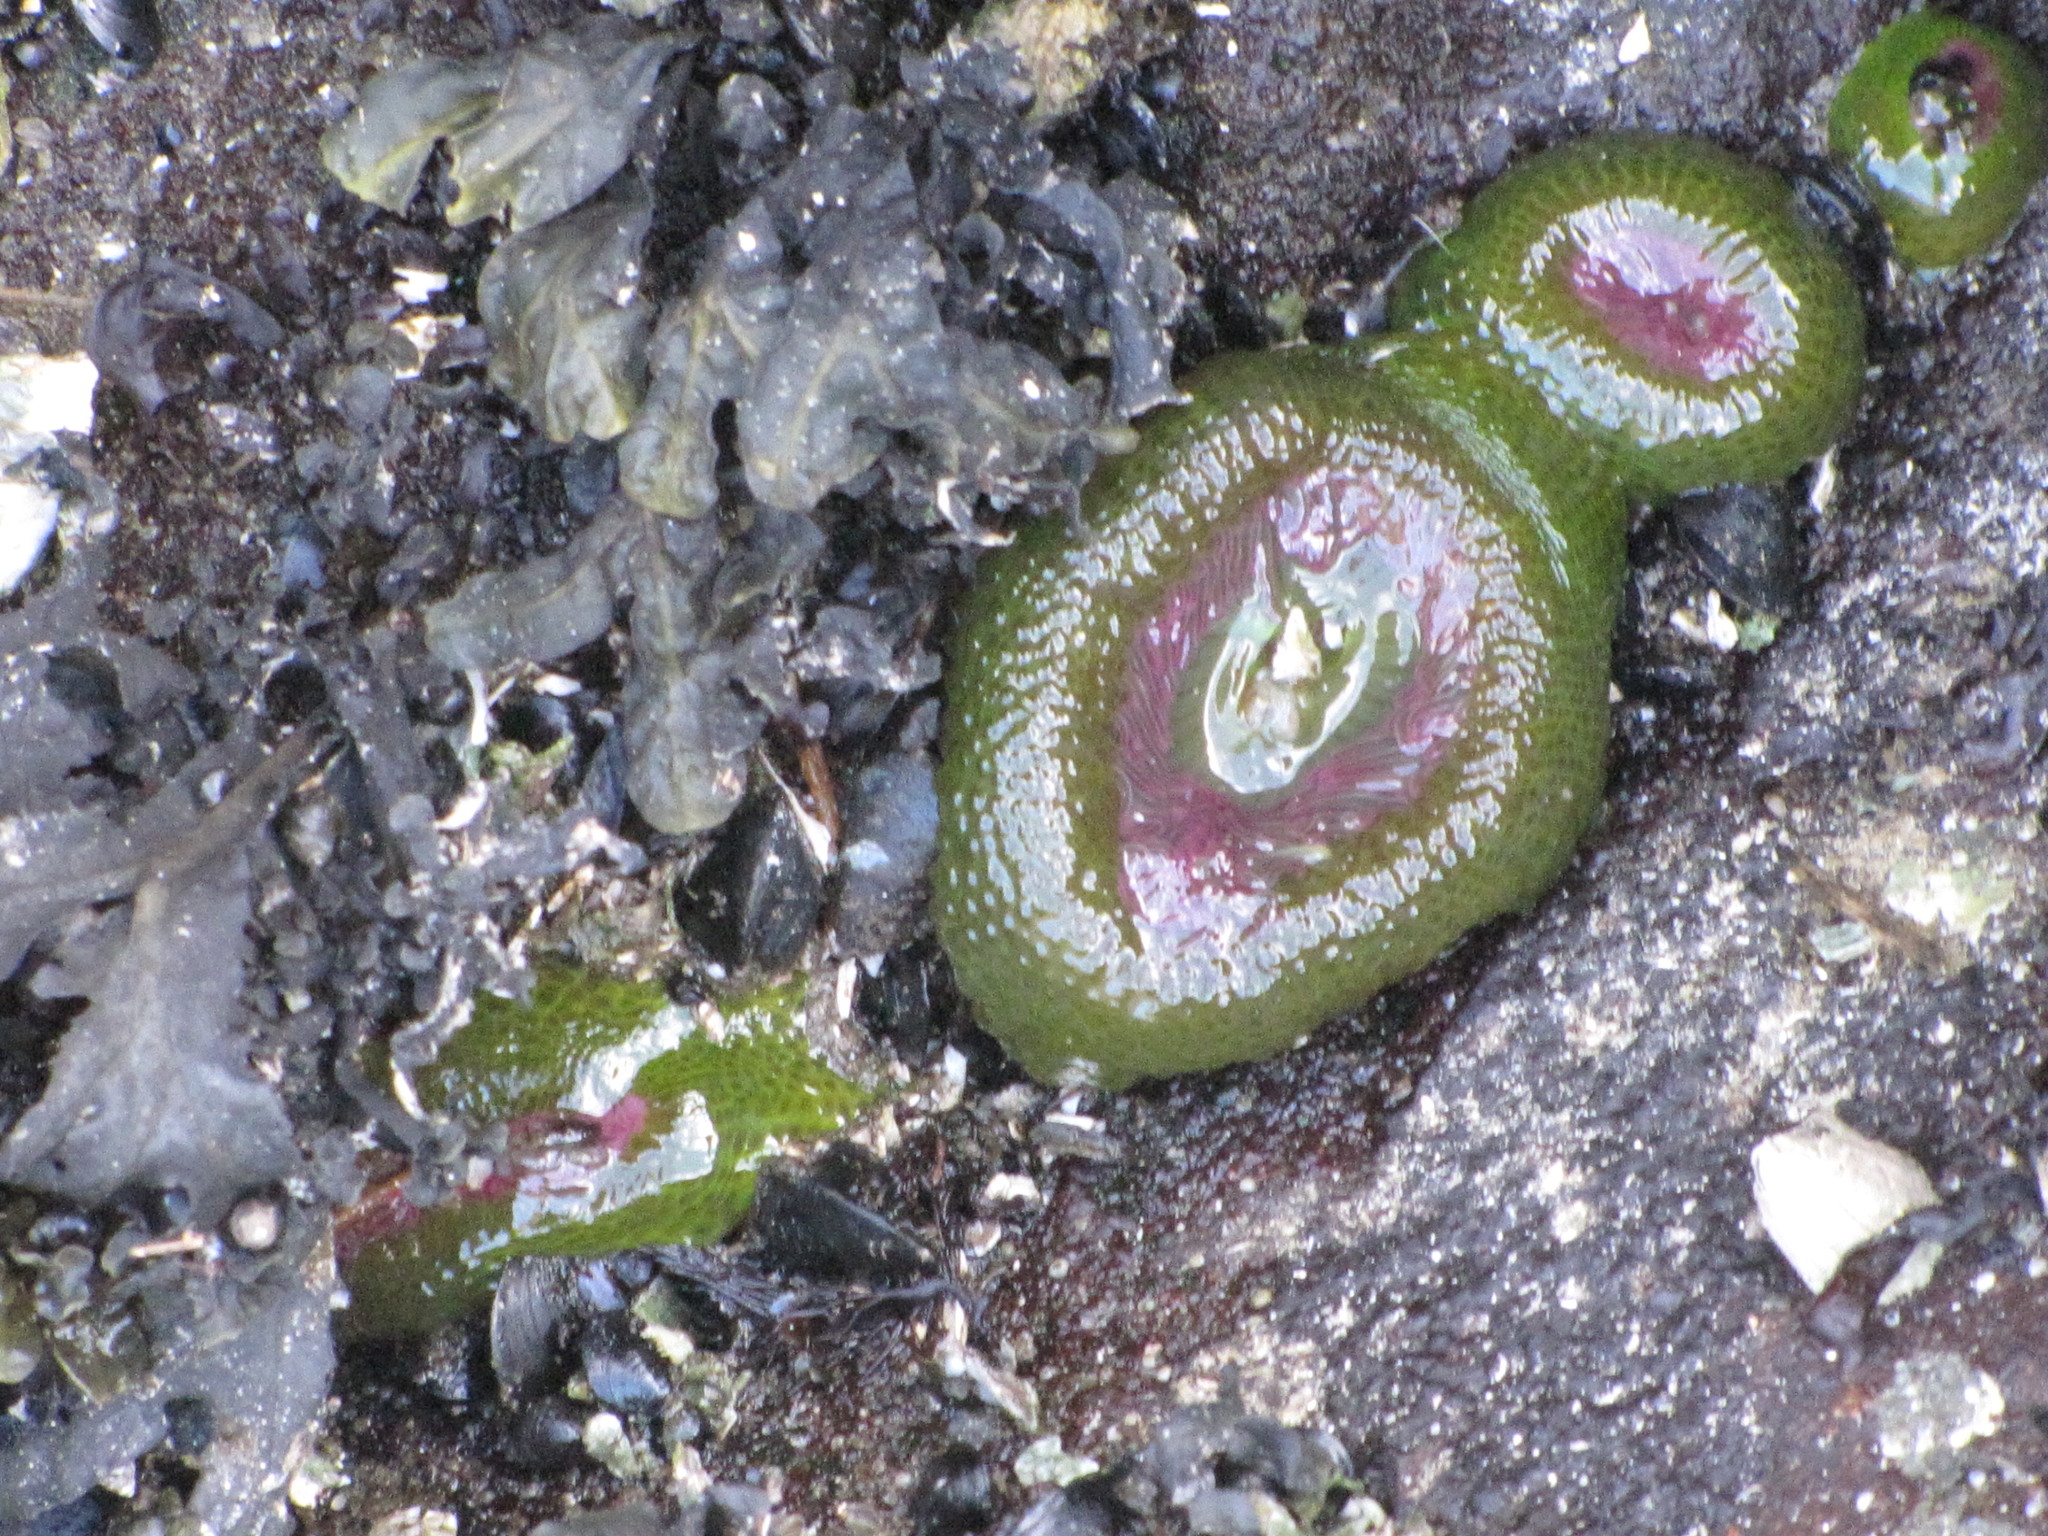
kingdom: Animalia
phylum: Cnidaria
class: Anthozoa
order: Actiniaria
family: Actiniidae
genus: Anthopleura
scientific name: Anthopleura elegantissima
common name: Clonal anemone
